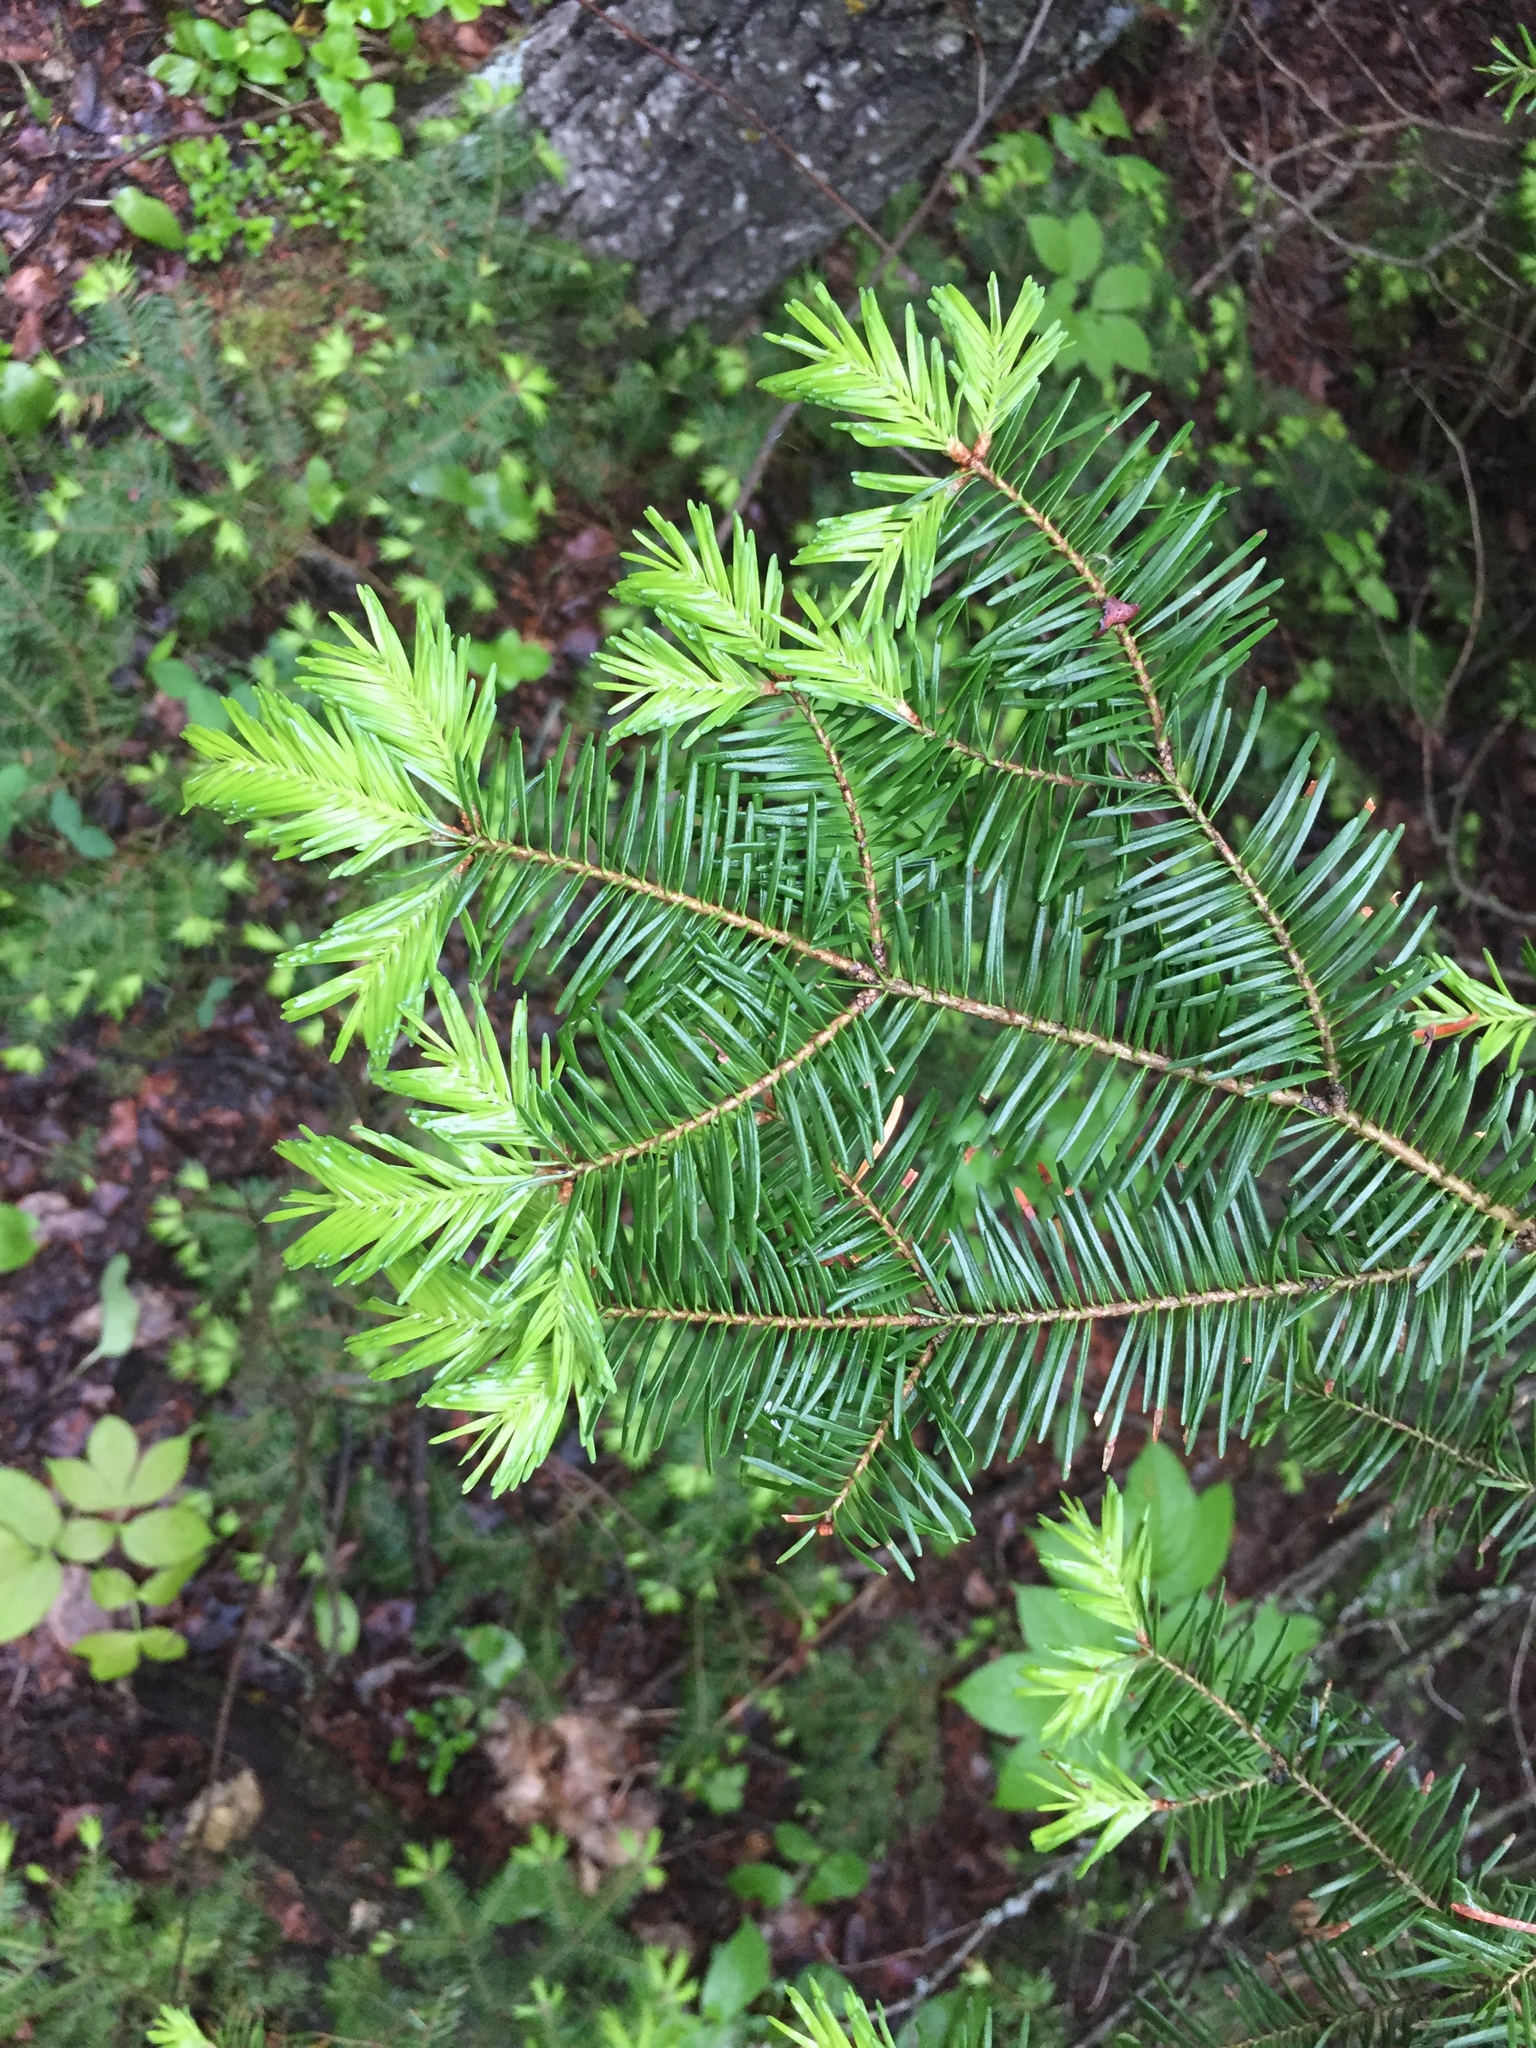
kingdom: Plantae
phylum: Tracheophyta
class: Pinopsida
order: Pinales
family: Pinaceae
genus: Abies
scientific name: Abies balsamea
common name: Balsam fir
